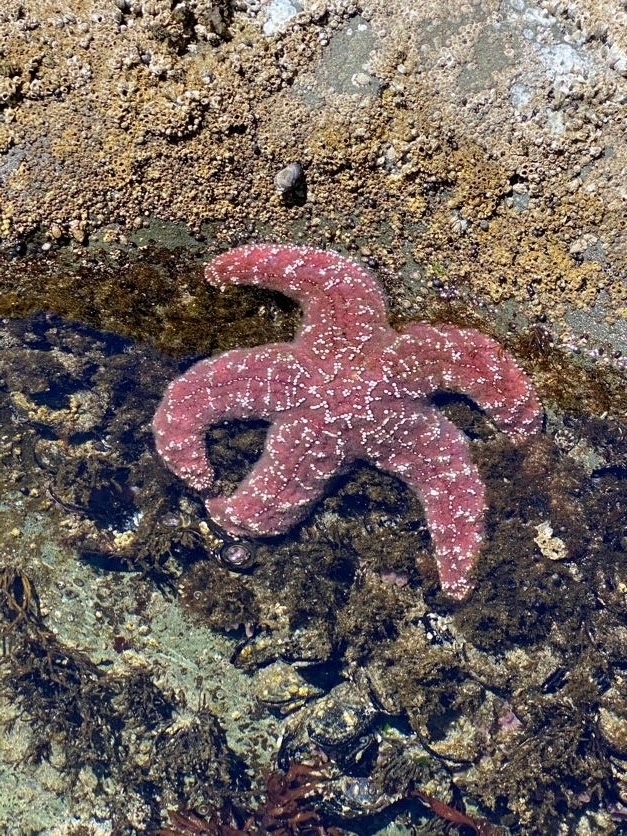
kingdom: Animalia
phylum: Echinodermata
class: Asteroidea
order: Forcipulatida
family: Asteriidae
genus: Pisaster
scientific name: Pisaster ochraceus
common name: Ochre stars
